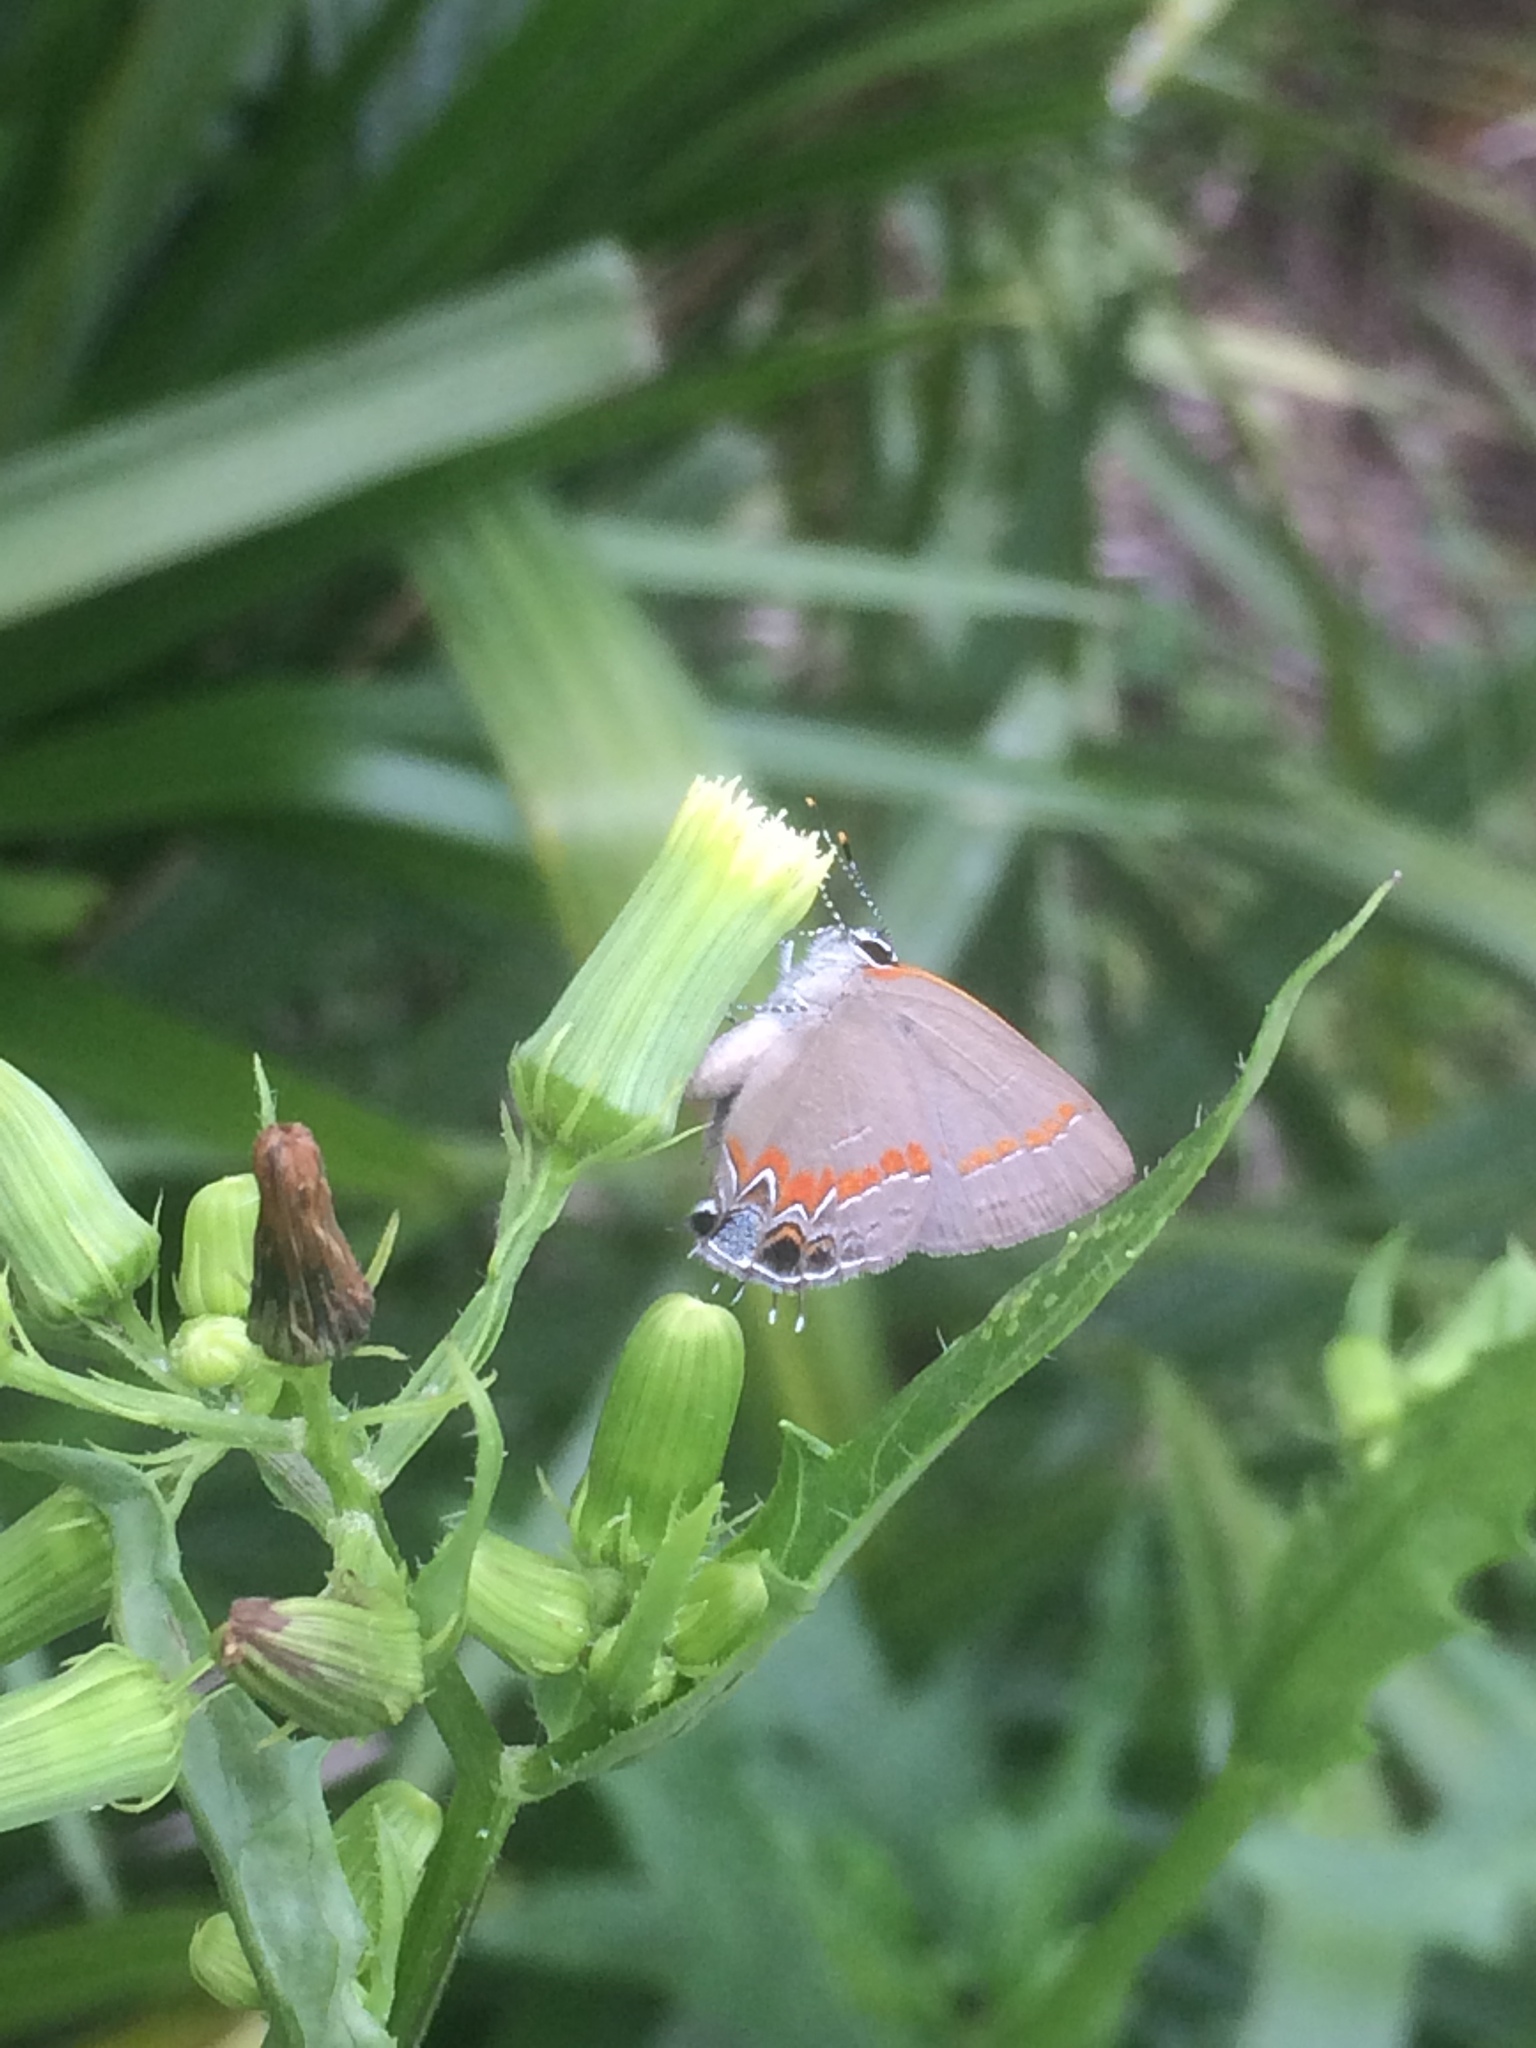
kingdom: Animalia
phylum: Arthropoda
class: Insecta
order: Lepidoptera
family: Lycaenidae
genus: Calycopis
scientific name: Calycopis cecrops
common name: Red-banded hairstreak
